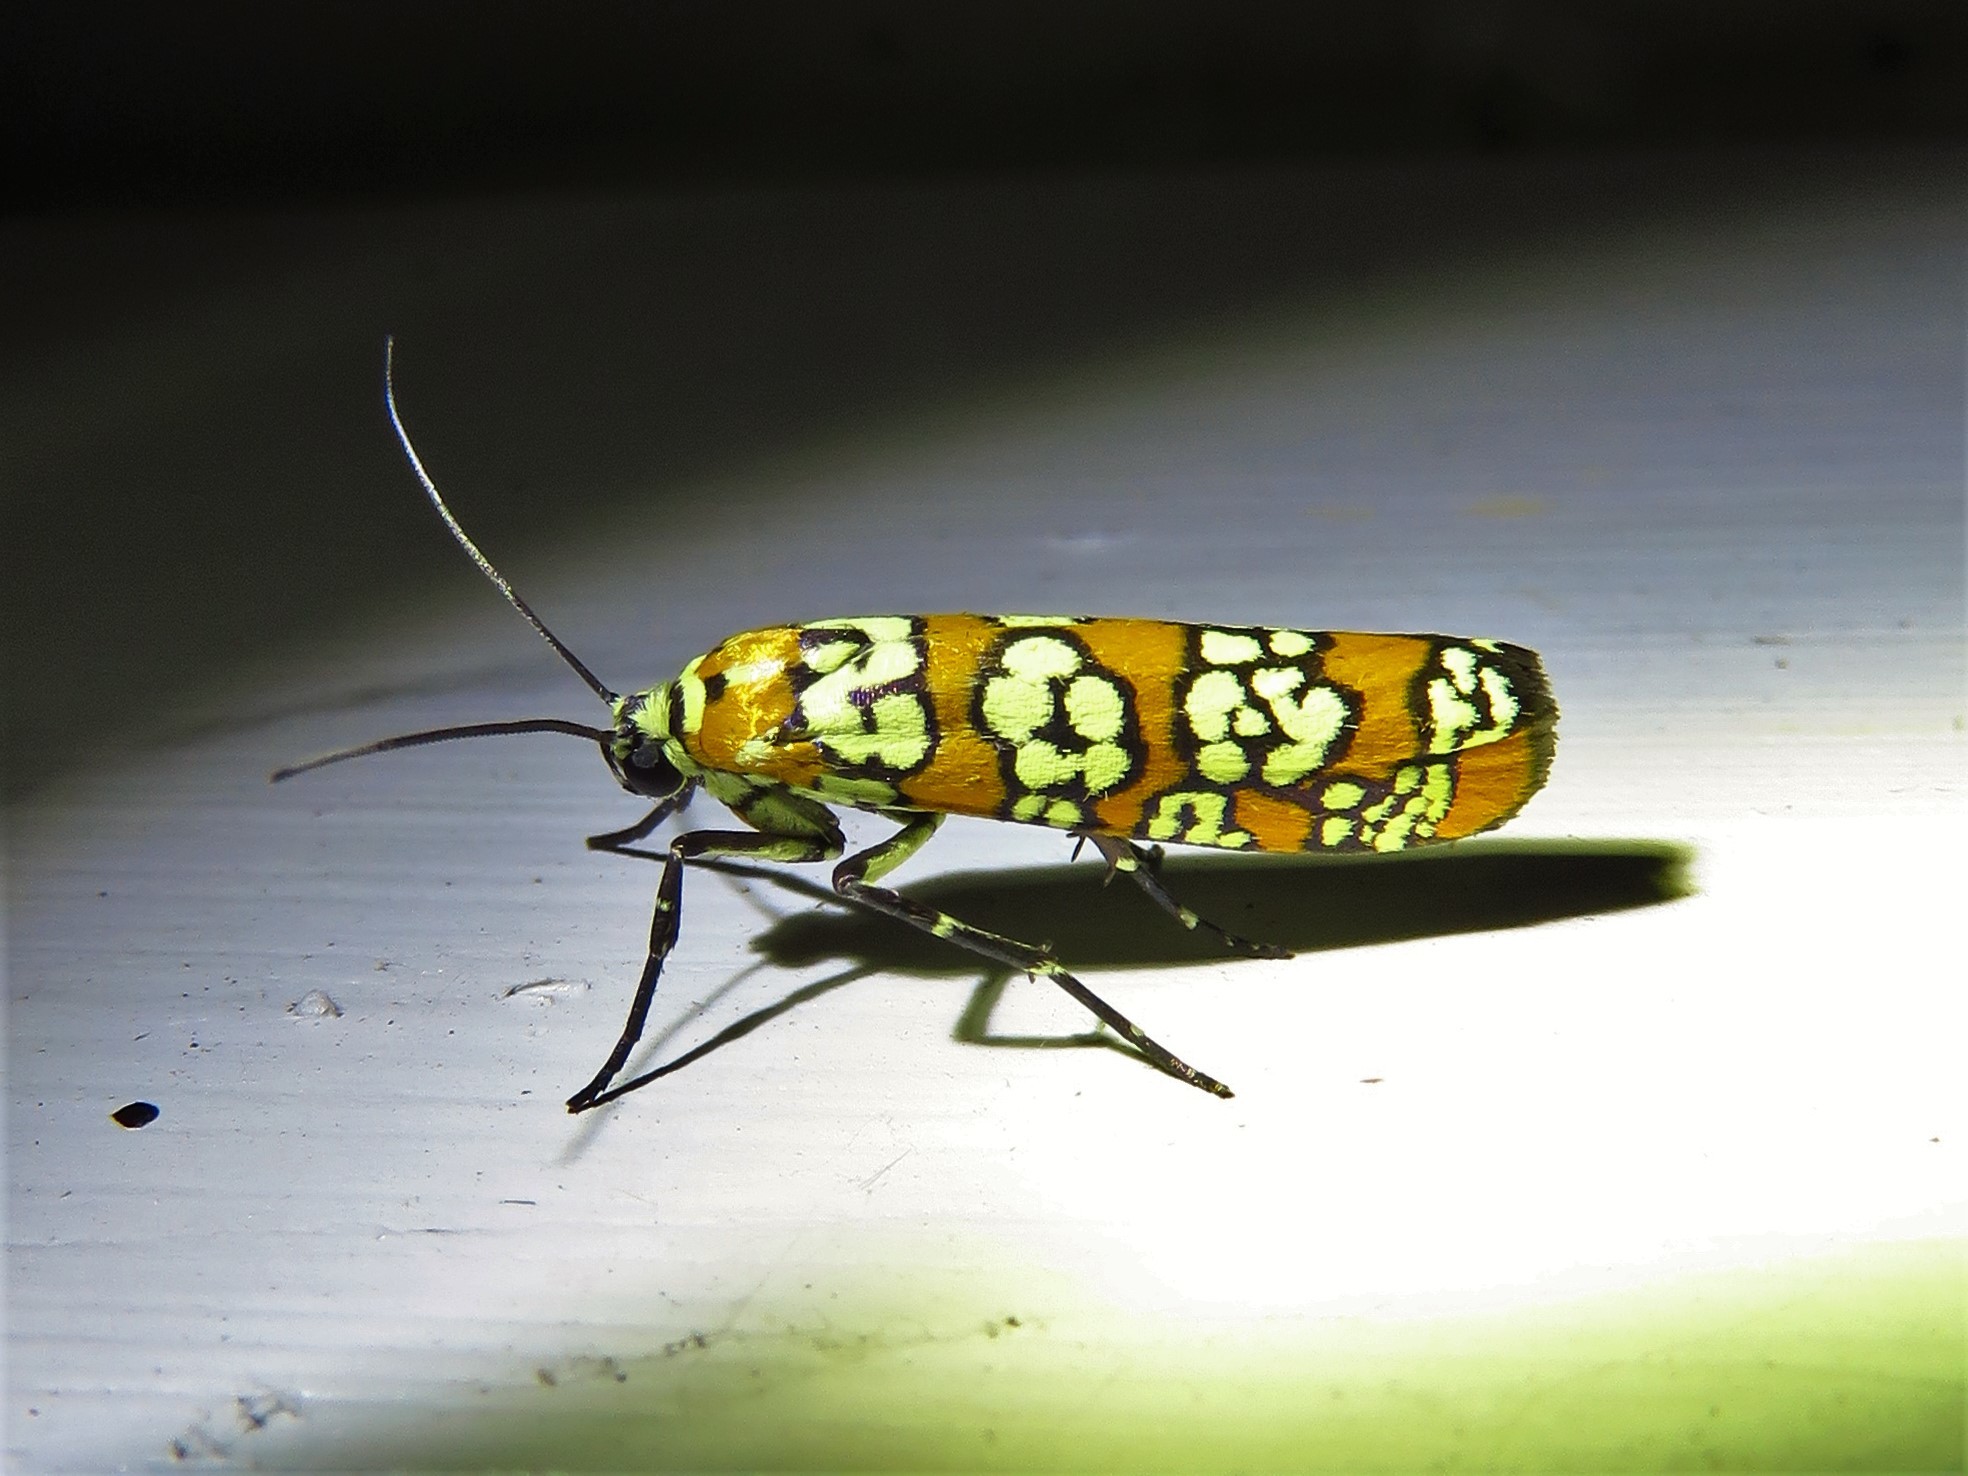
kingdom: Animalia
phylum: Arthropoda
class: Insecta
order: Lepidoptera
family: Attevidae
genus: Atteva
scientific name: Atteva punctella
